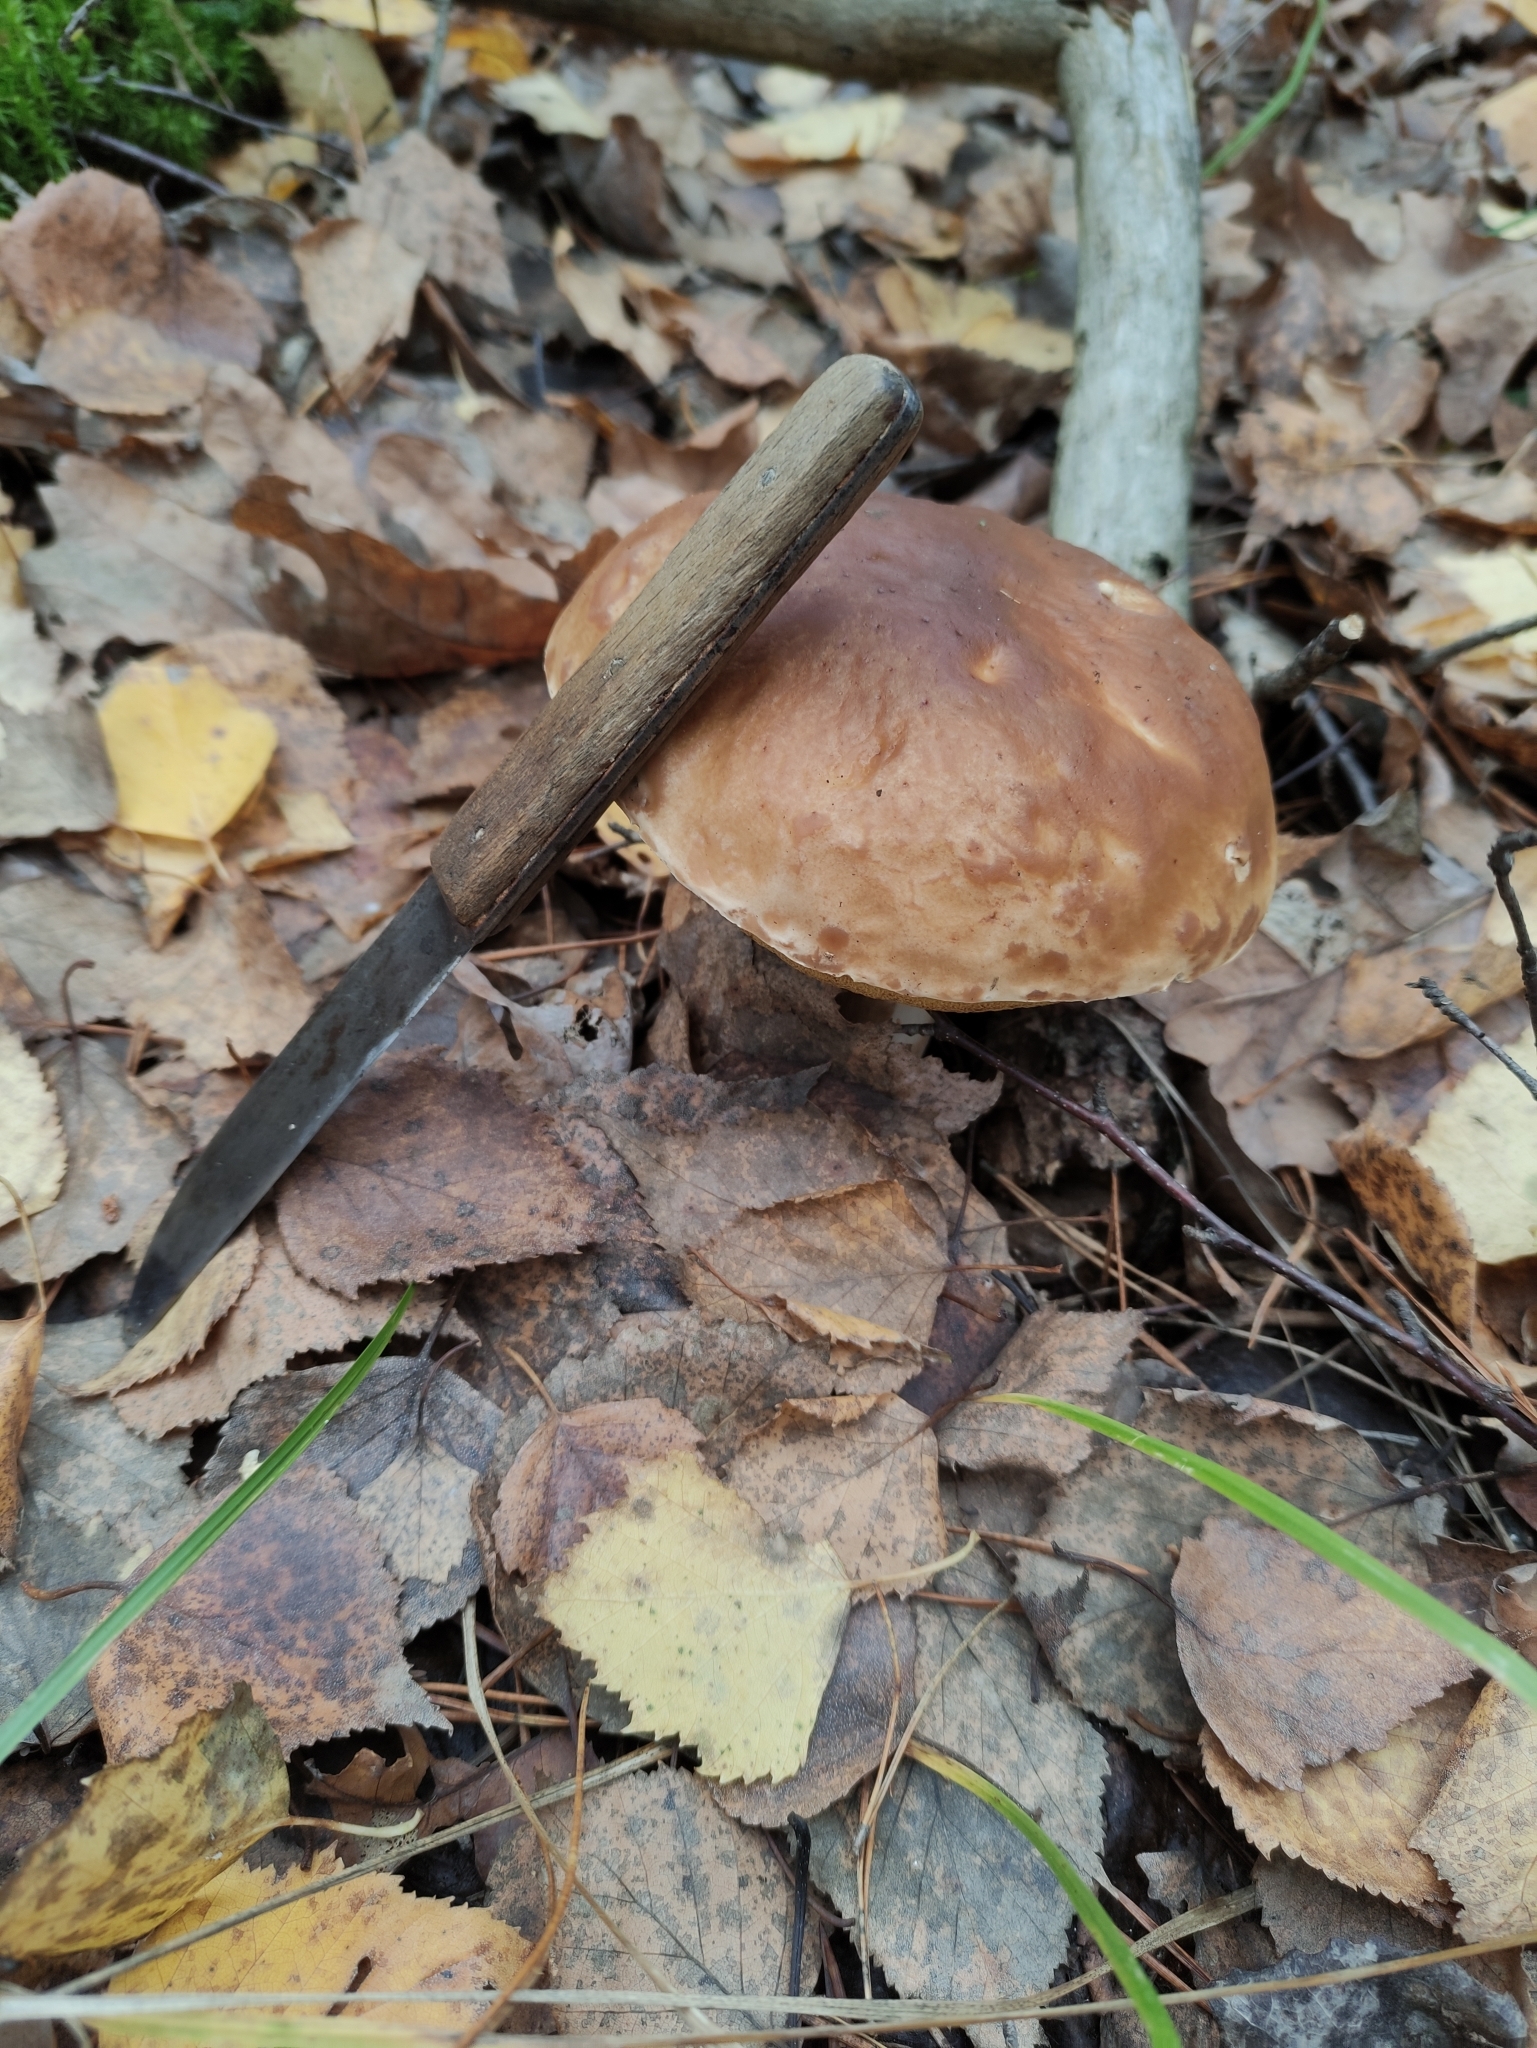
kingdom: Fungi
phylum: Basidiomycota
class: Agaricomycetes
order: Boletales
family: Boletaceae
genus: Boletus
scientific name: Boletus edulis
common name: Cep
